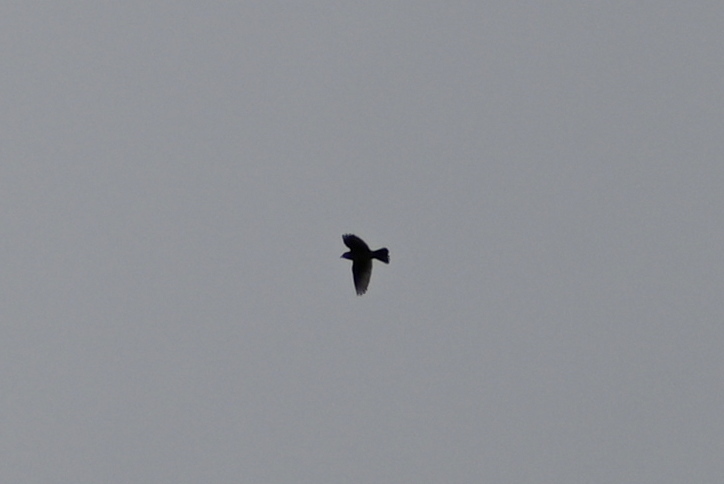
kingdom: Animalia
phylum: Chordata
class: Aves
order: Passeriformes
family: Alaudidae
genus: Alauda
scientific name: Alauda arvensis
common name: Eurasian skylark
